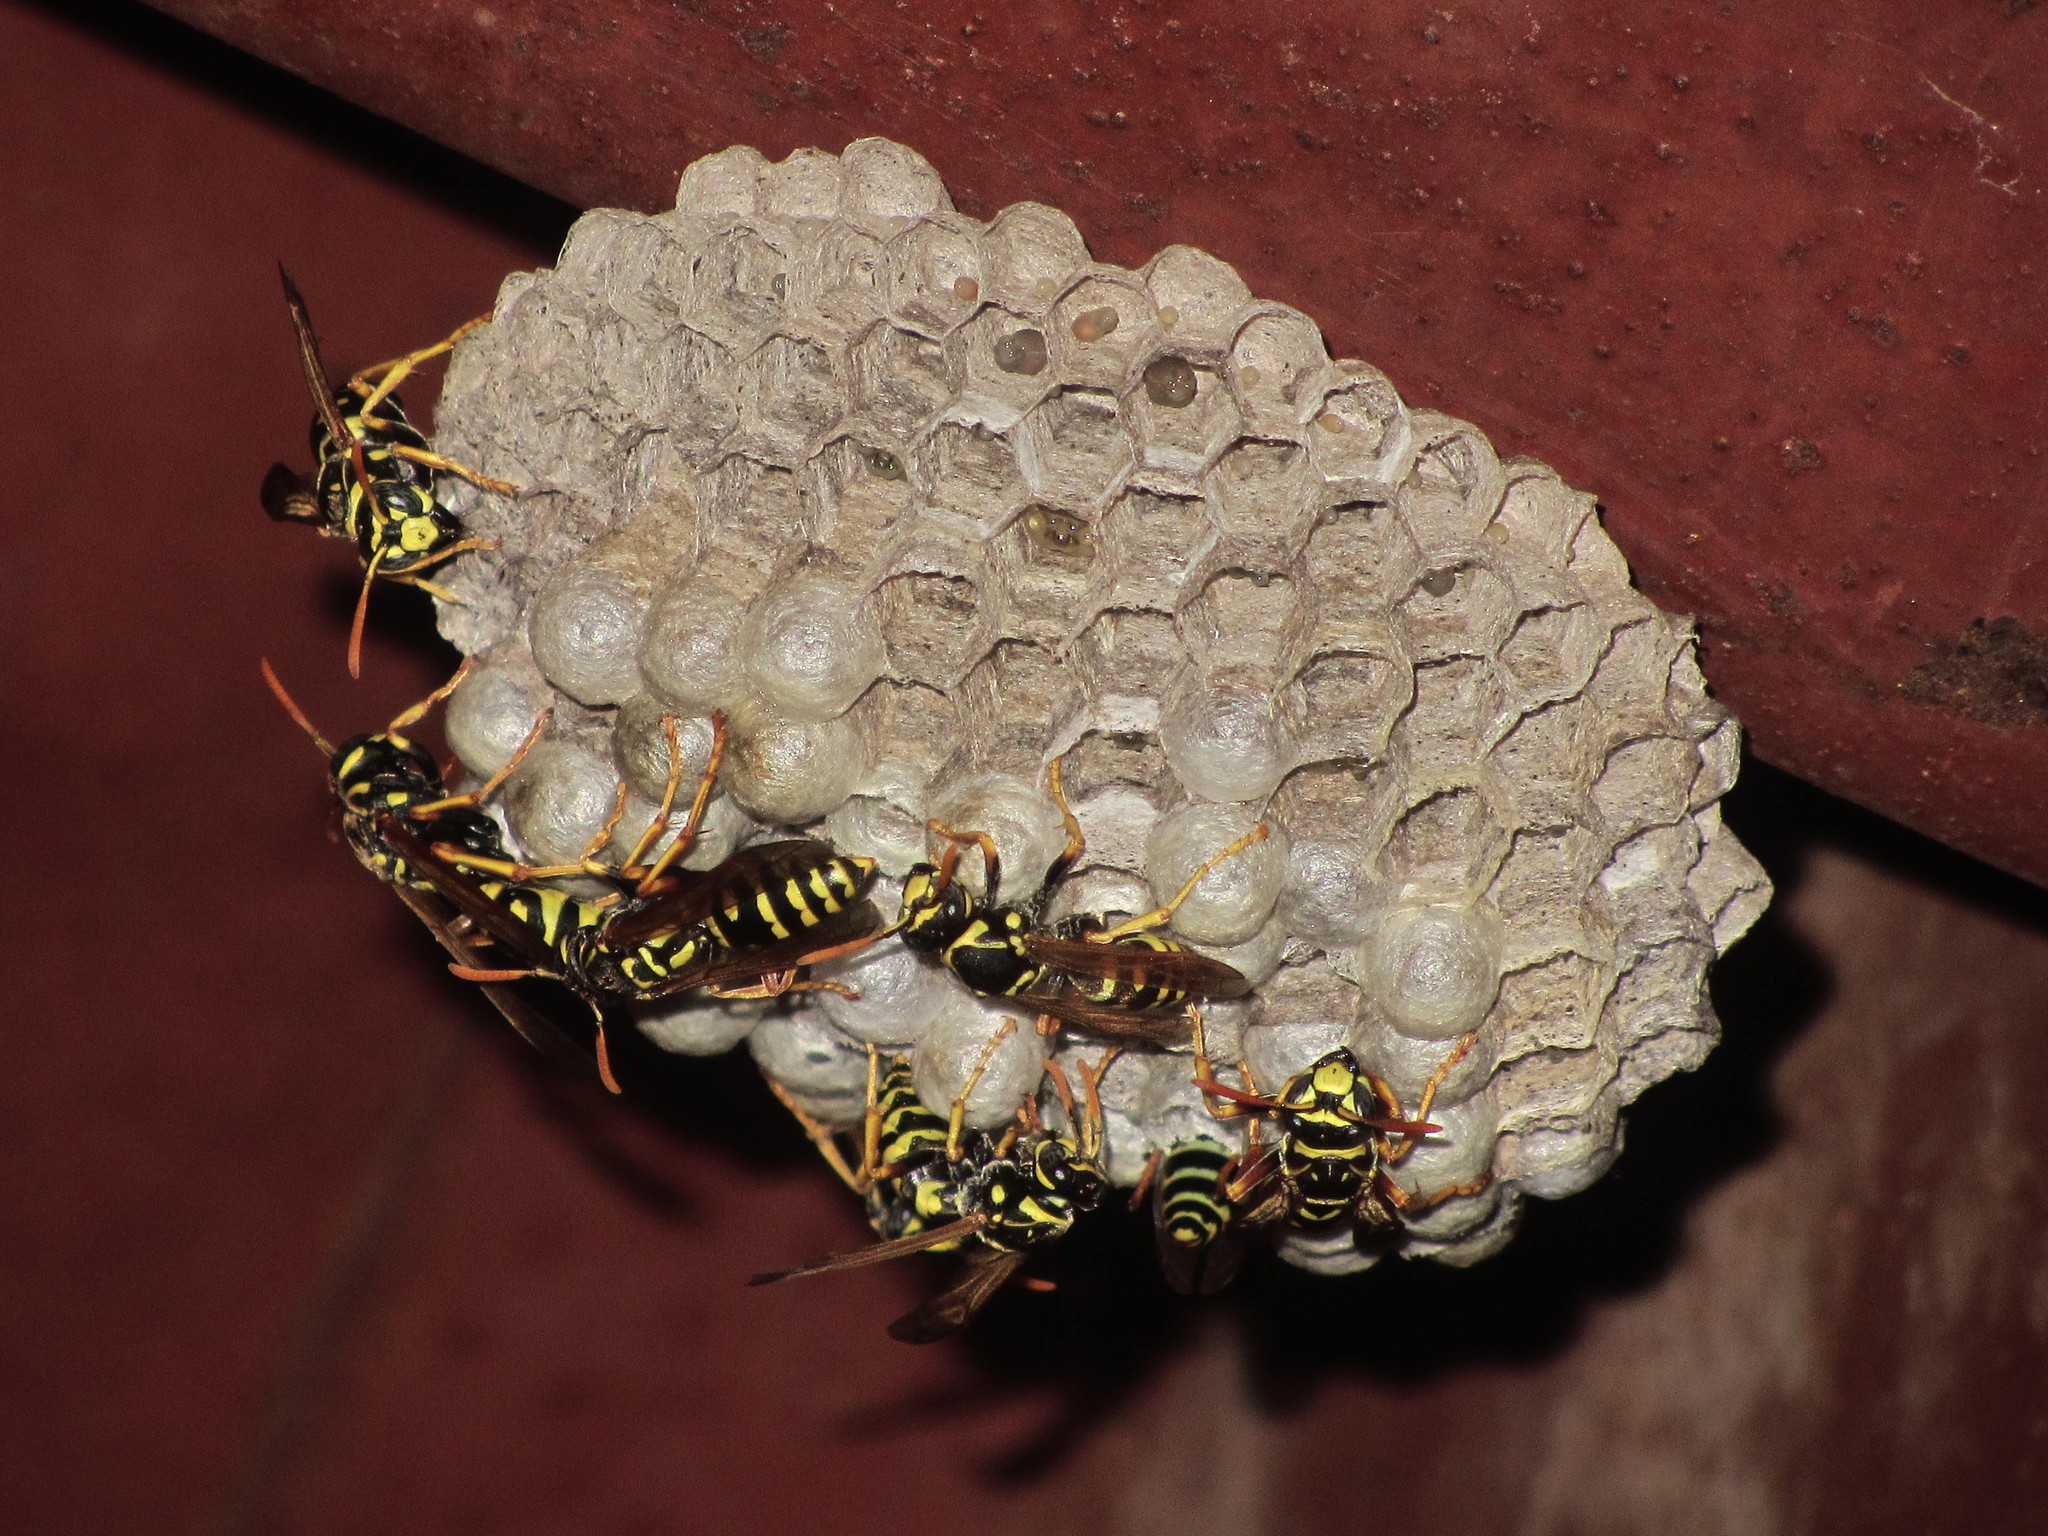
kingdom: Animalia
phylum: Arthropoda
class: Insecta
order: Hymenoptera
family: Eumenidae
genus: Polistes
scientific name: Polistes dominula
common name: Paper wasp
